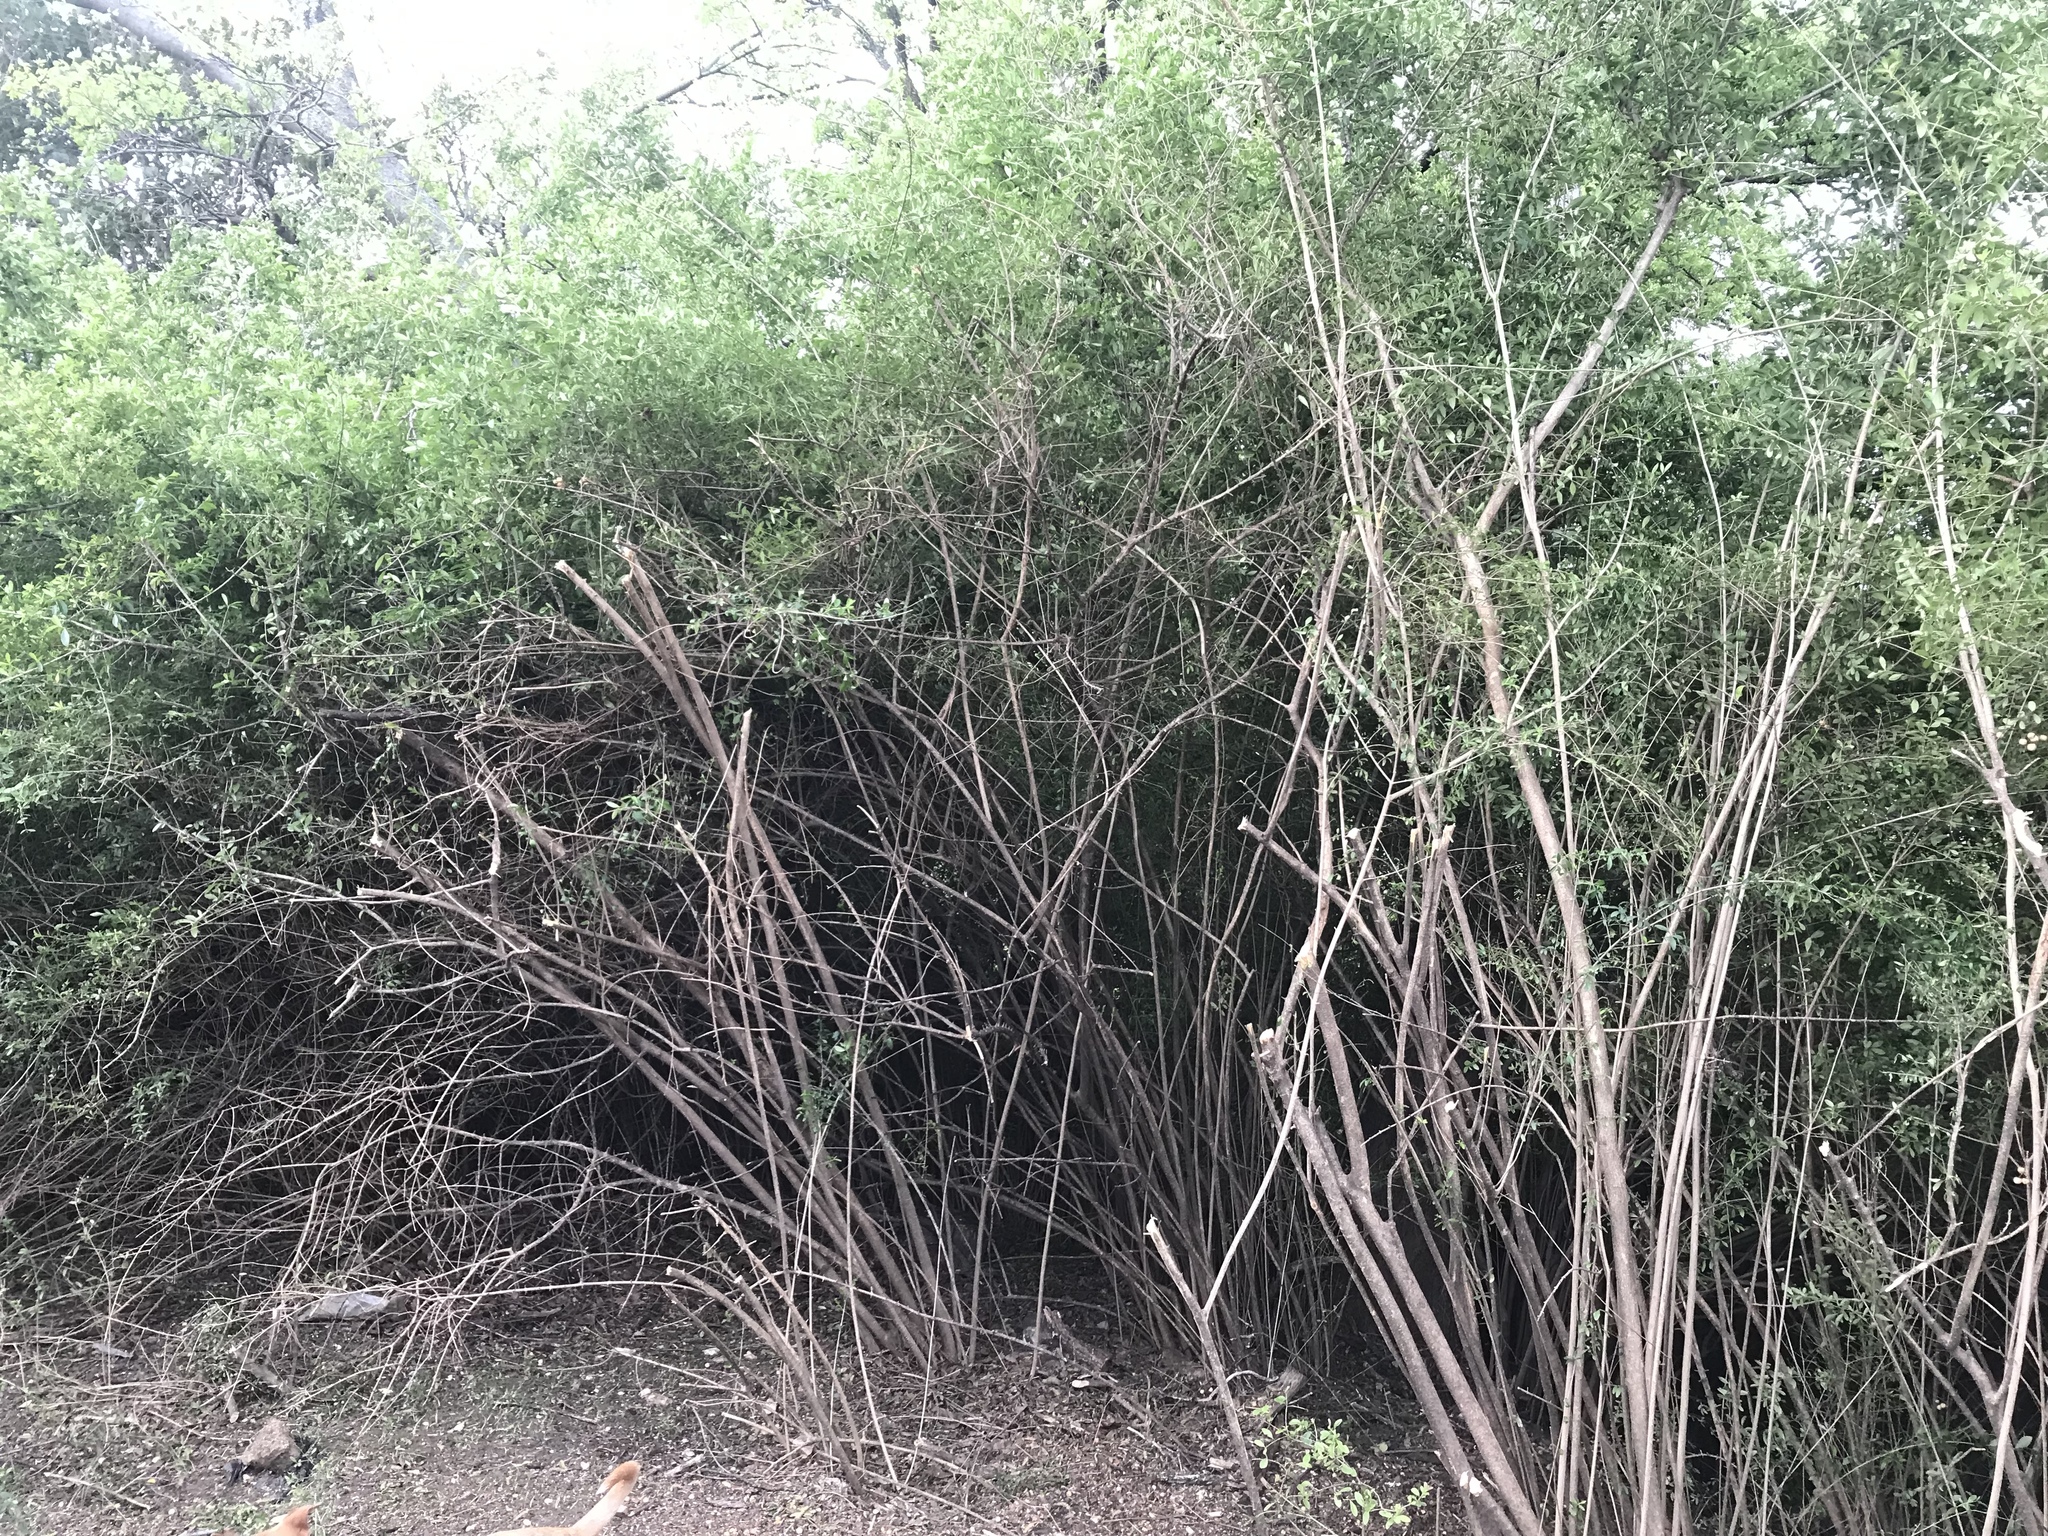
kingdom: Plantae
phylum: Tracheophyta
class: Magnoliopsida
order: Lamiales
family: Oleaceae
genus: Ligustrum
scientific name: Ligustrum quihoui
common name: Waxyleaf privet
